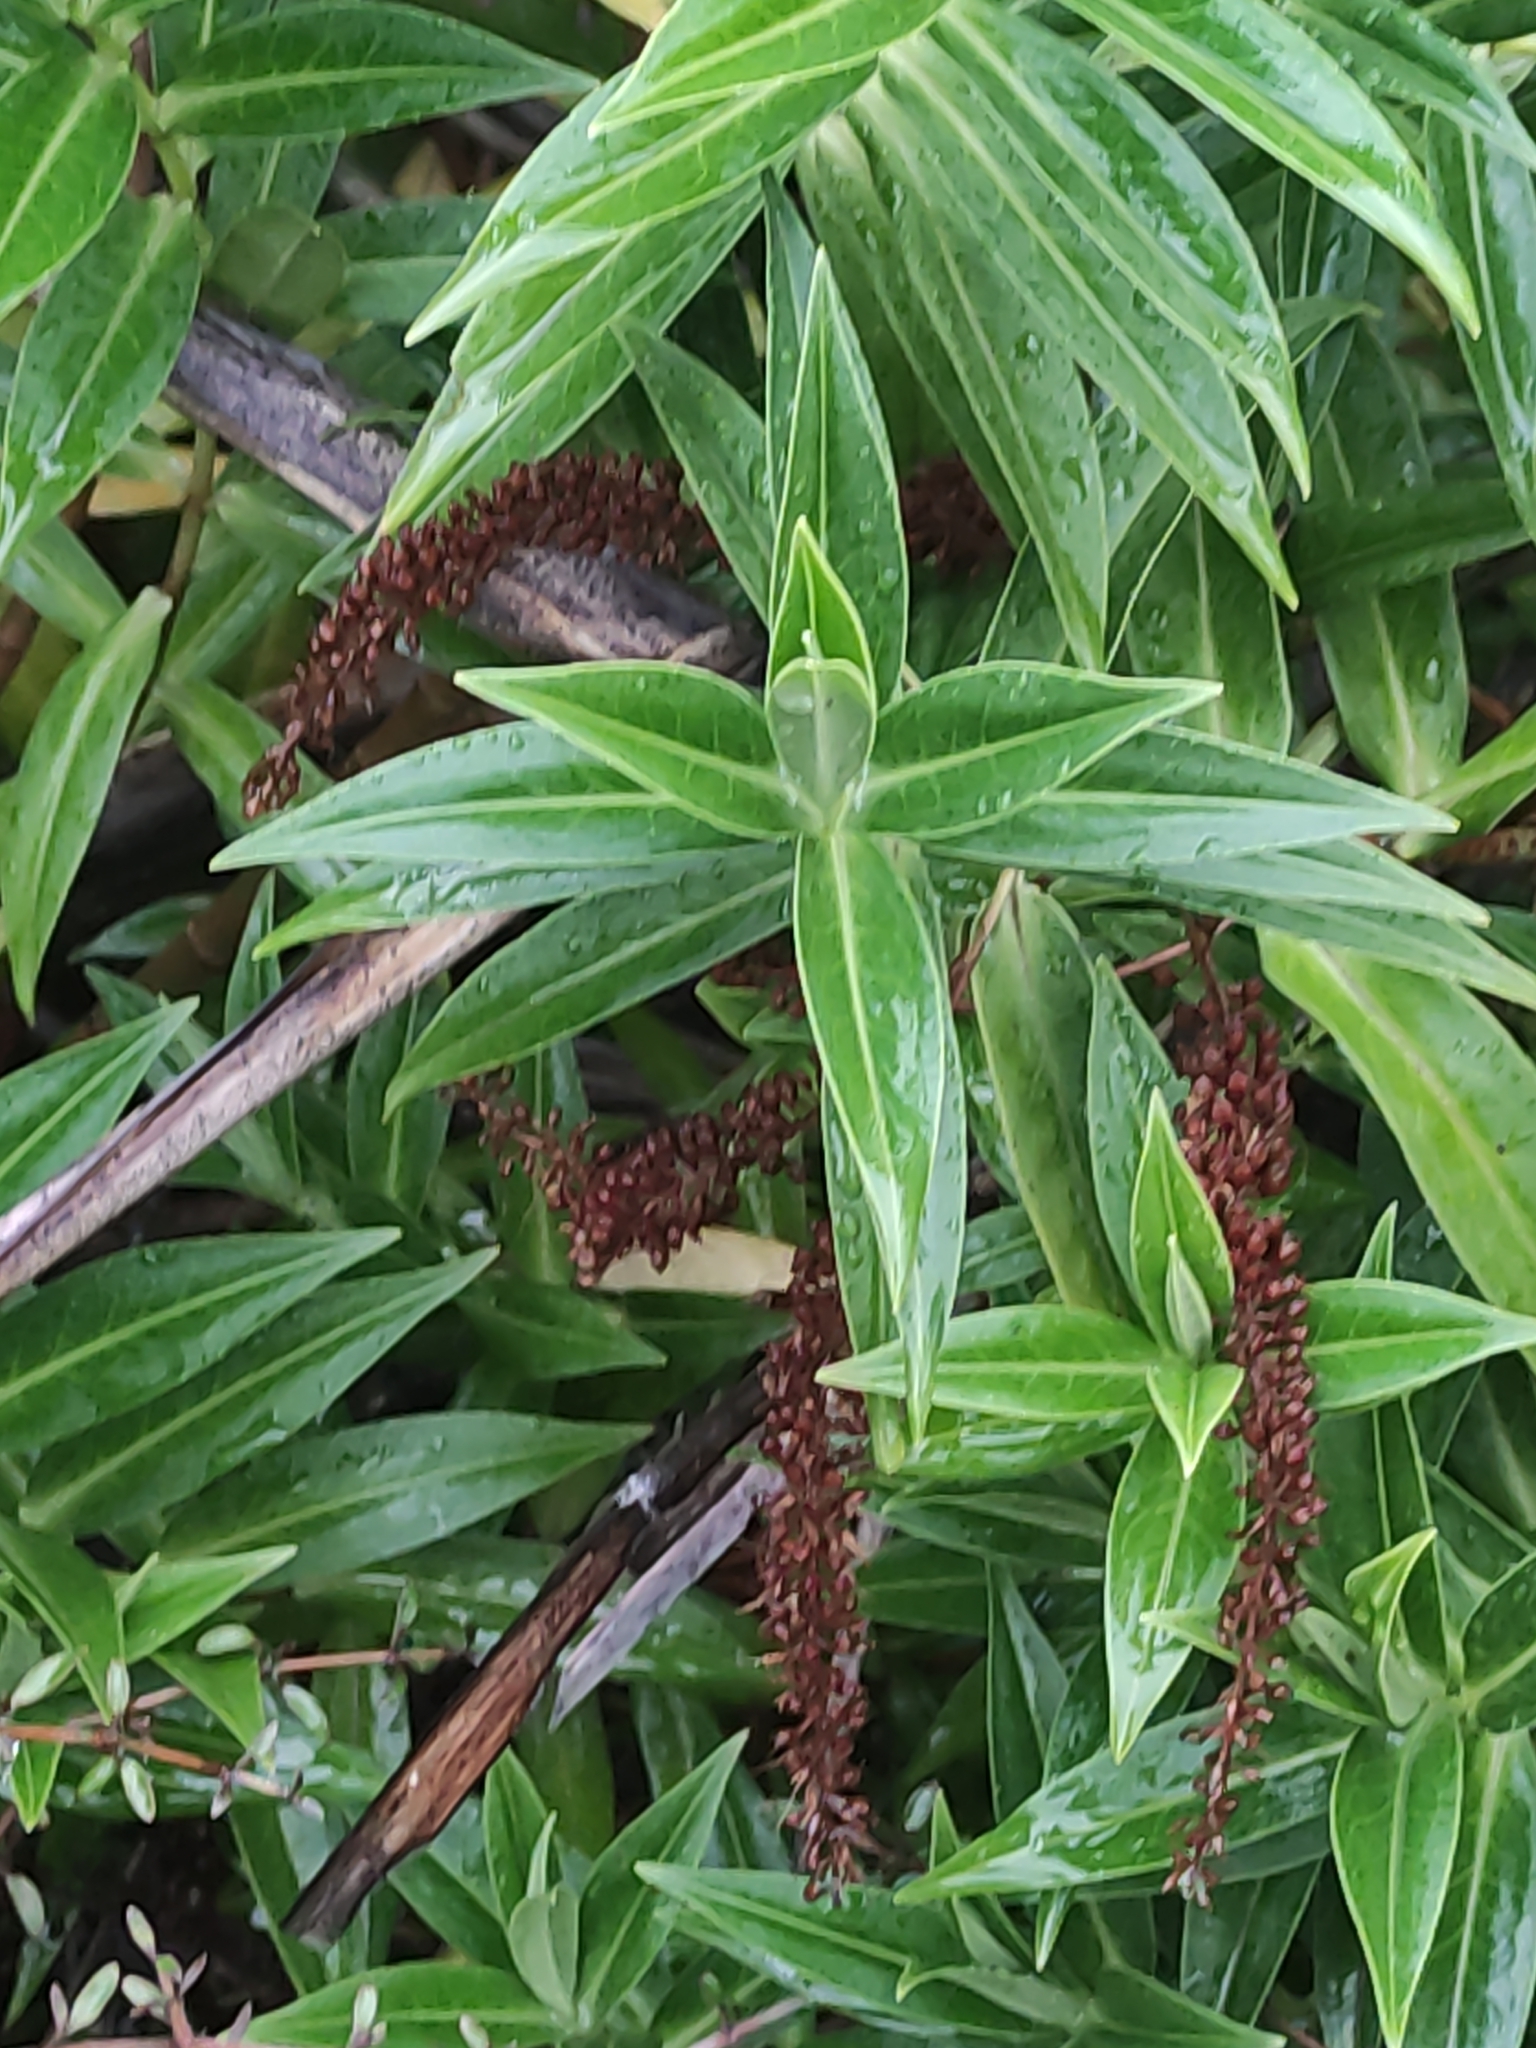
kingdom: Plantae
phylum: Tracheophyta
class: Magnoliopsida
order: Lamiales
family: Plantaginaceae
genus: Veronica
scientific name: Veronica salicifolia
